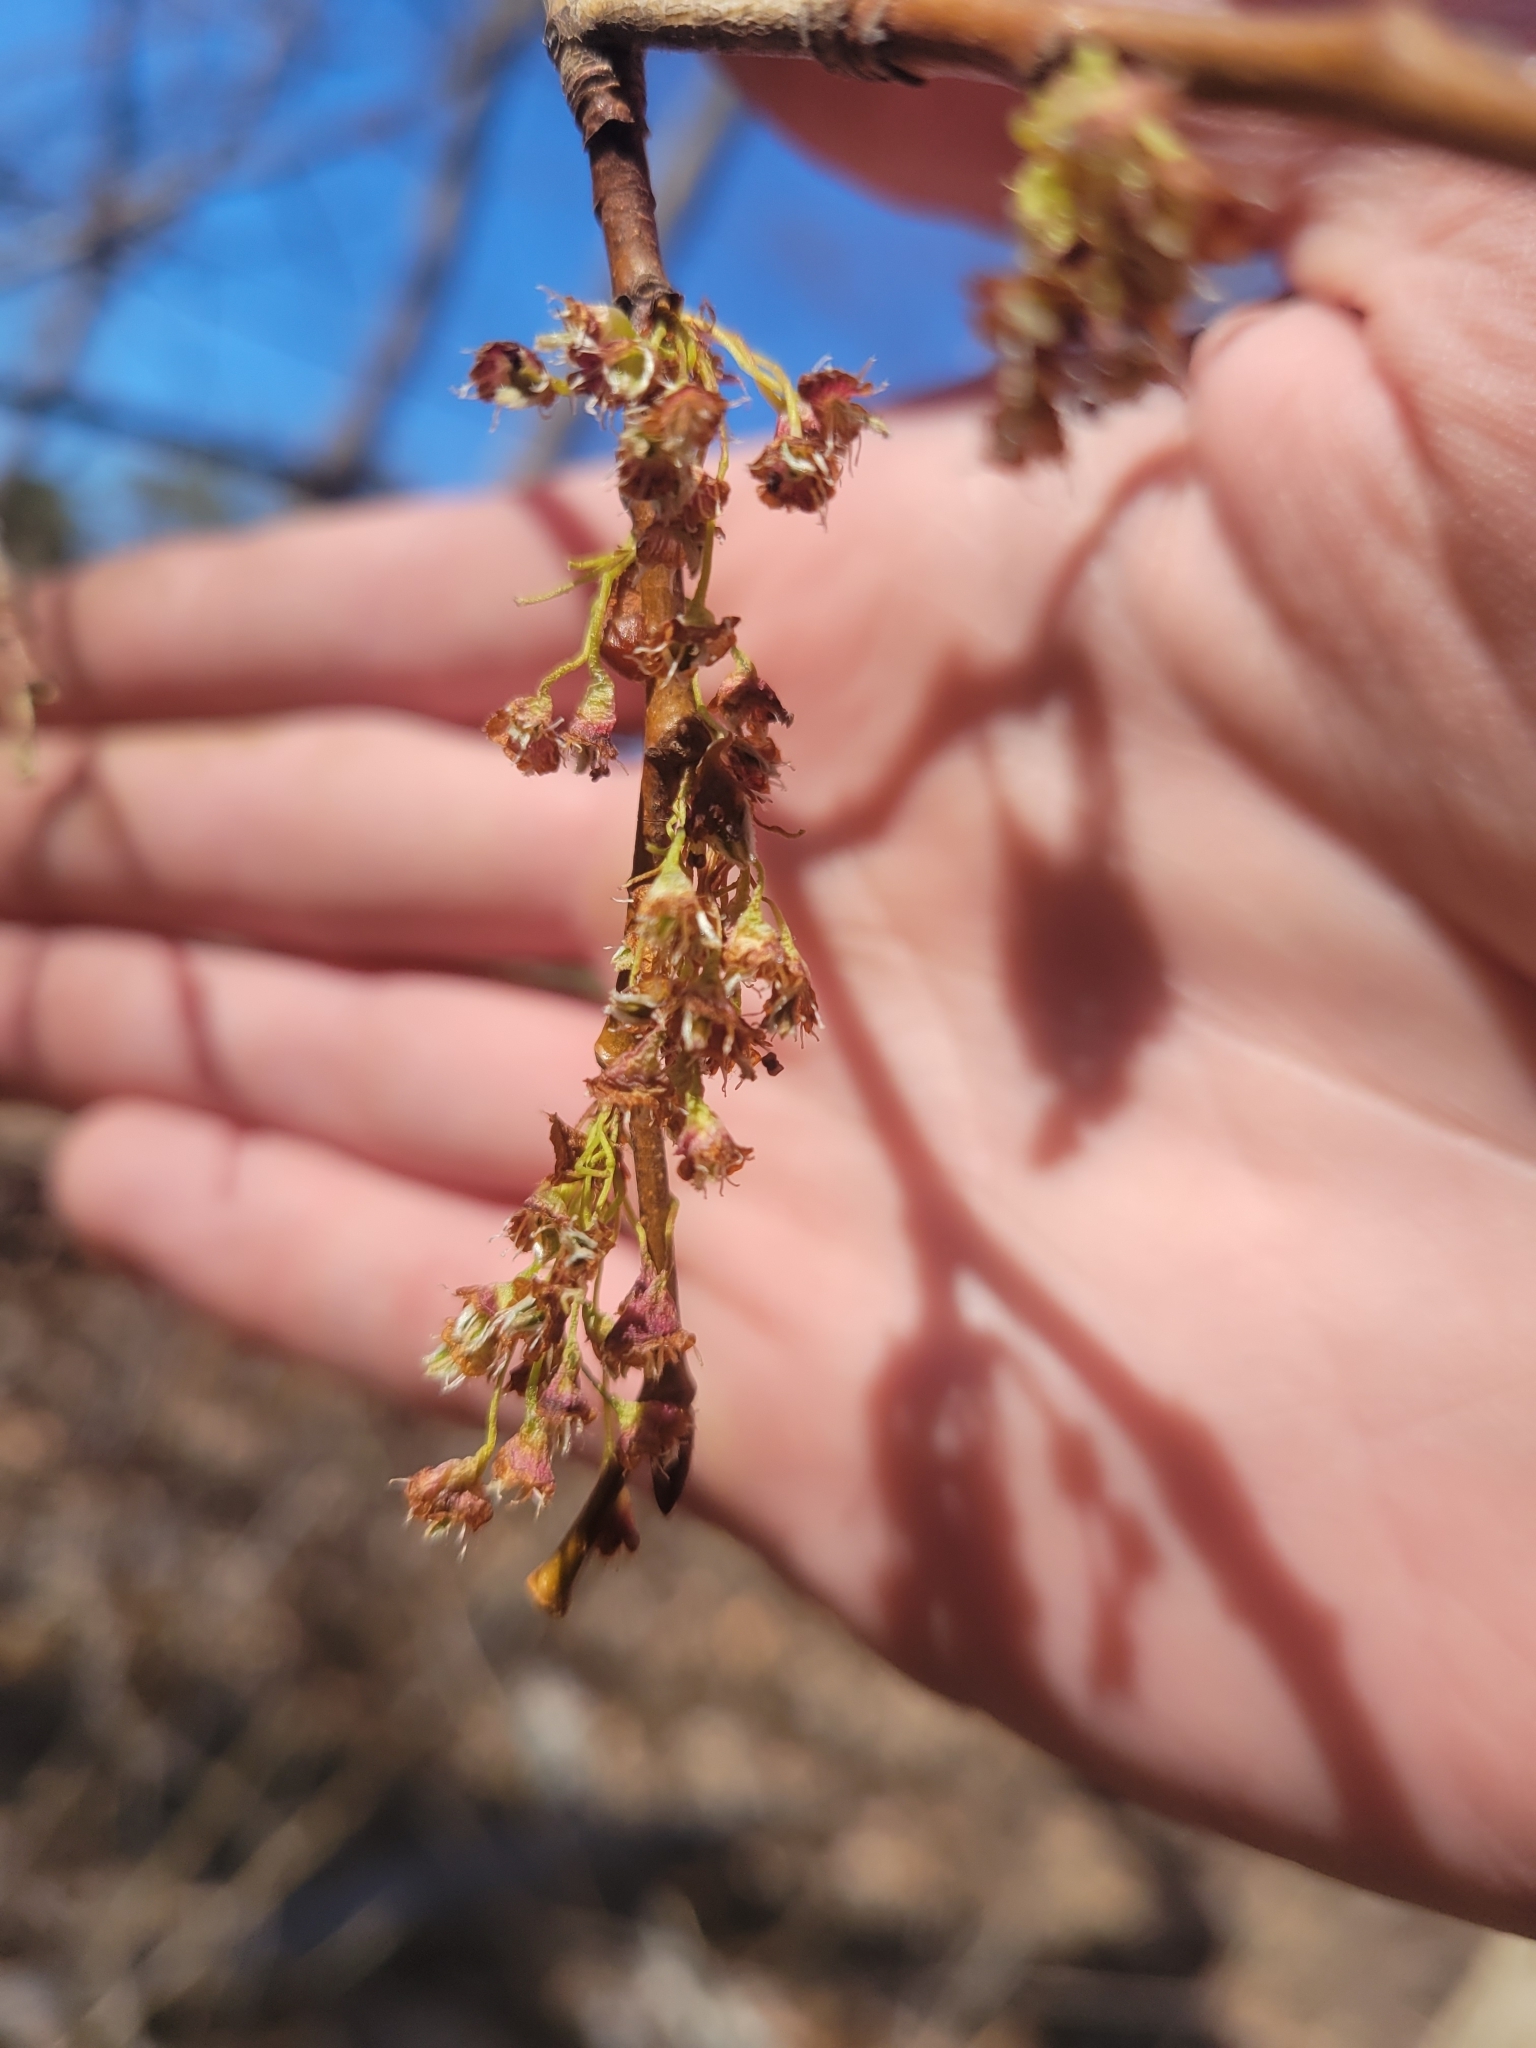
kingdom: Plantae
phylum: Tracheophyta
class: Magnoliopsida
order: Rosales
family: Ulmaceae
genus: Ulmus
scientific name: Ulmus americana
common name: American elm
